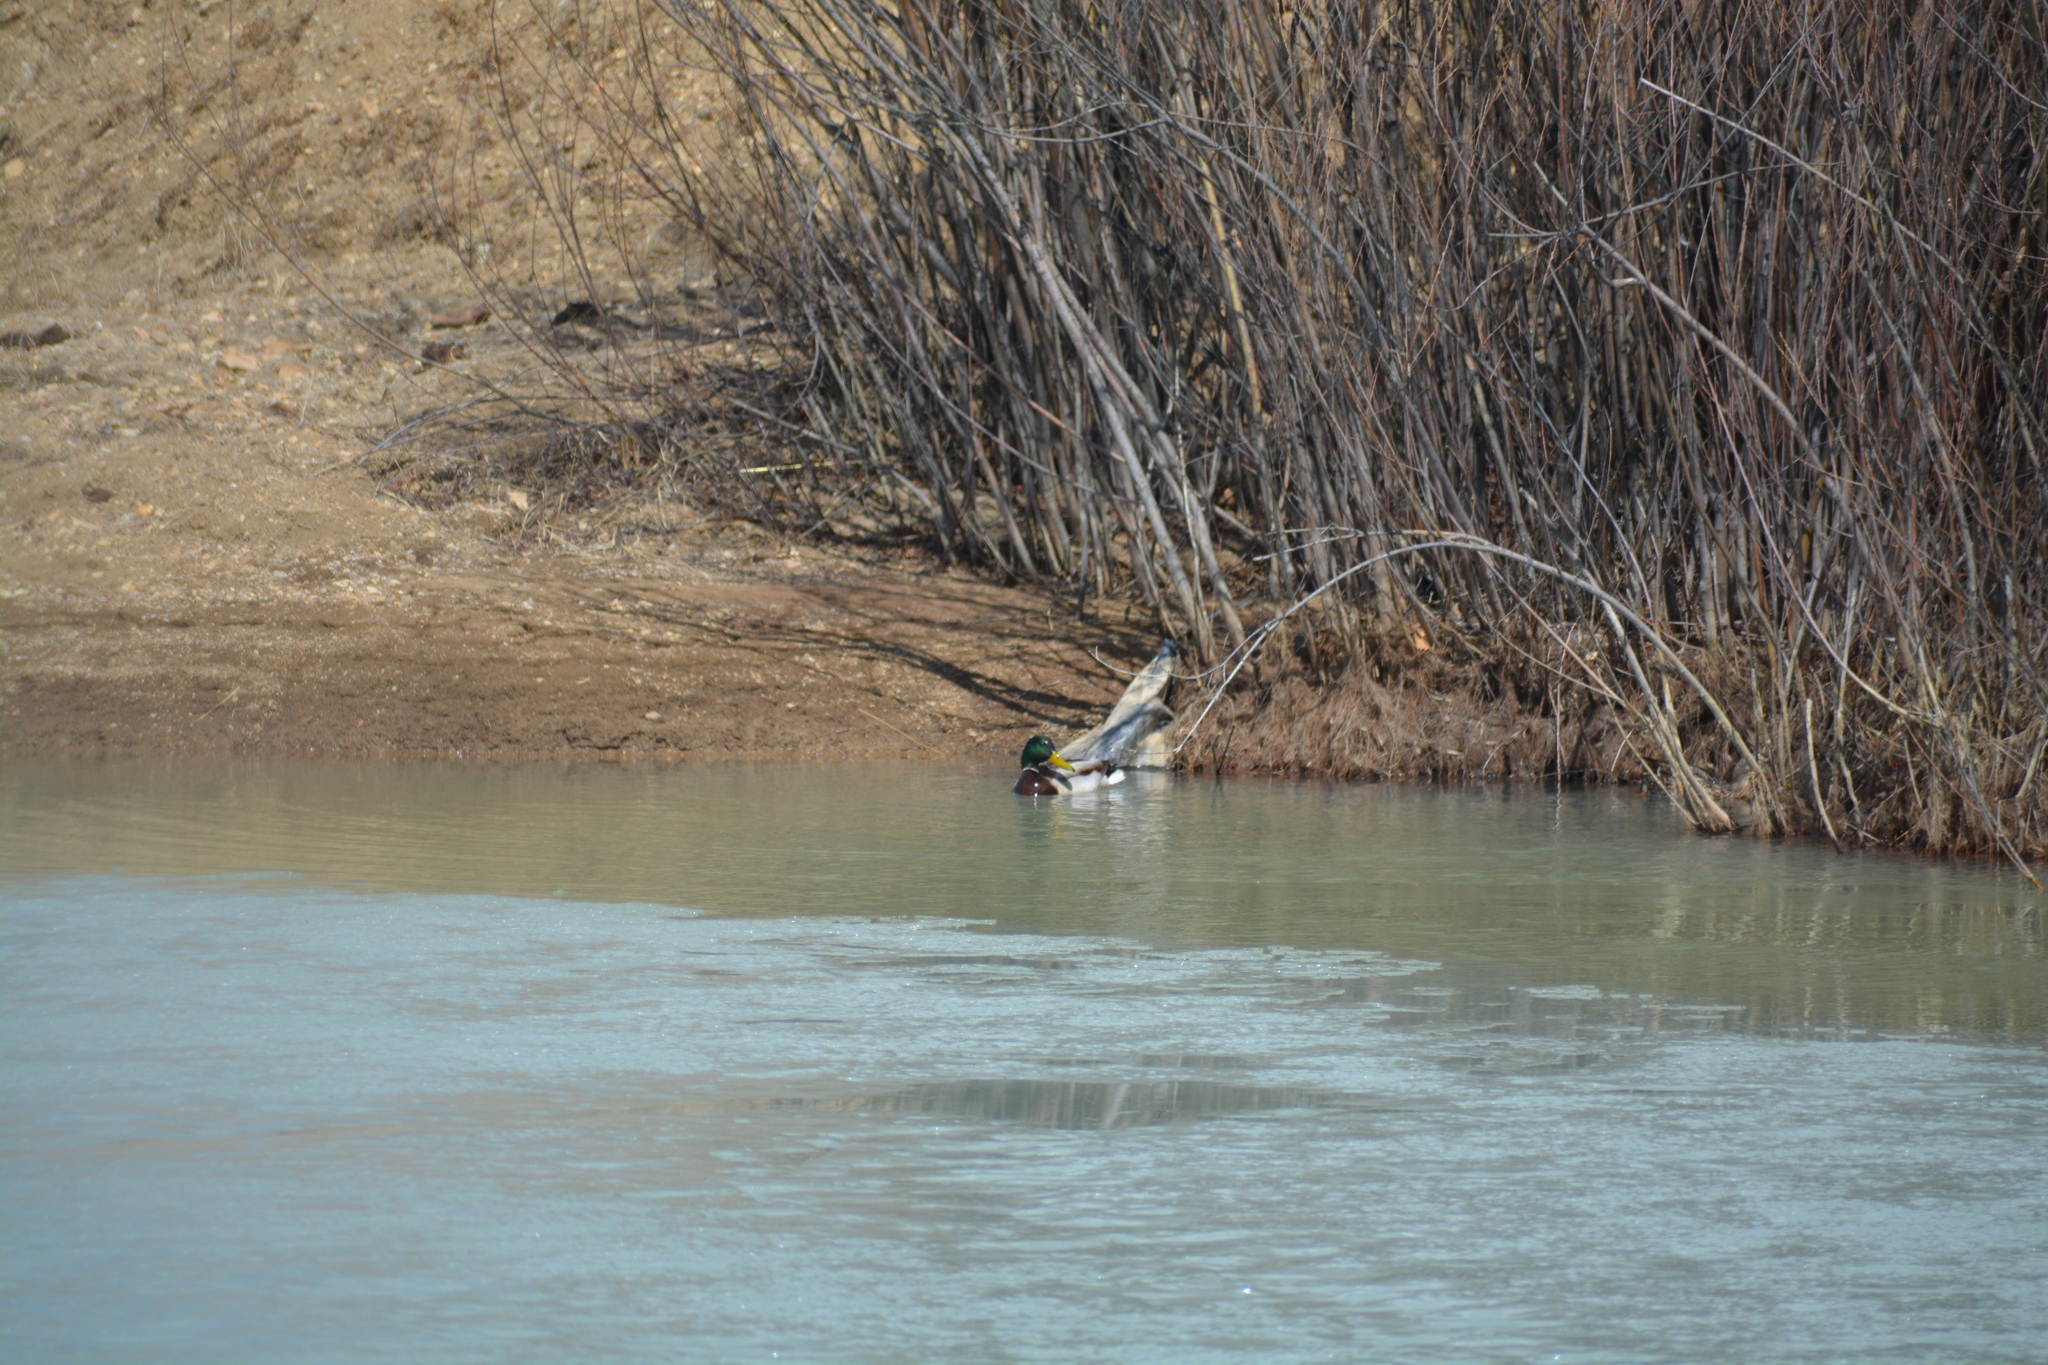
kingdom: Animalia
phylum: Chordata
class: Aves
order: Anseriformes
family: Anatidae
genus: Anas
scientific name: Anas platyrhynchos
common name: Mallard
